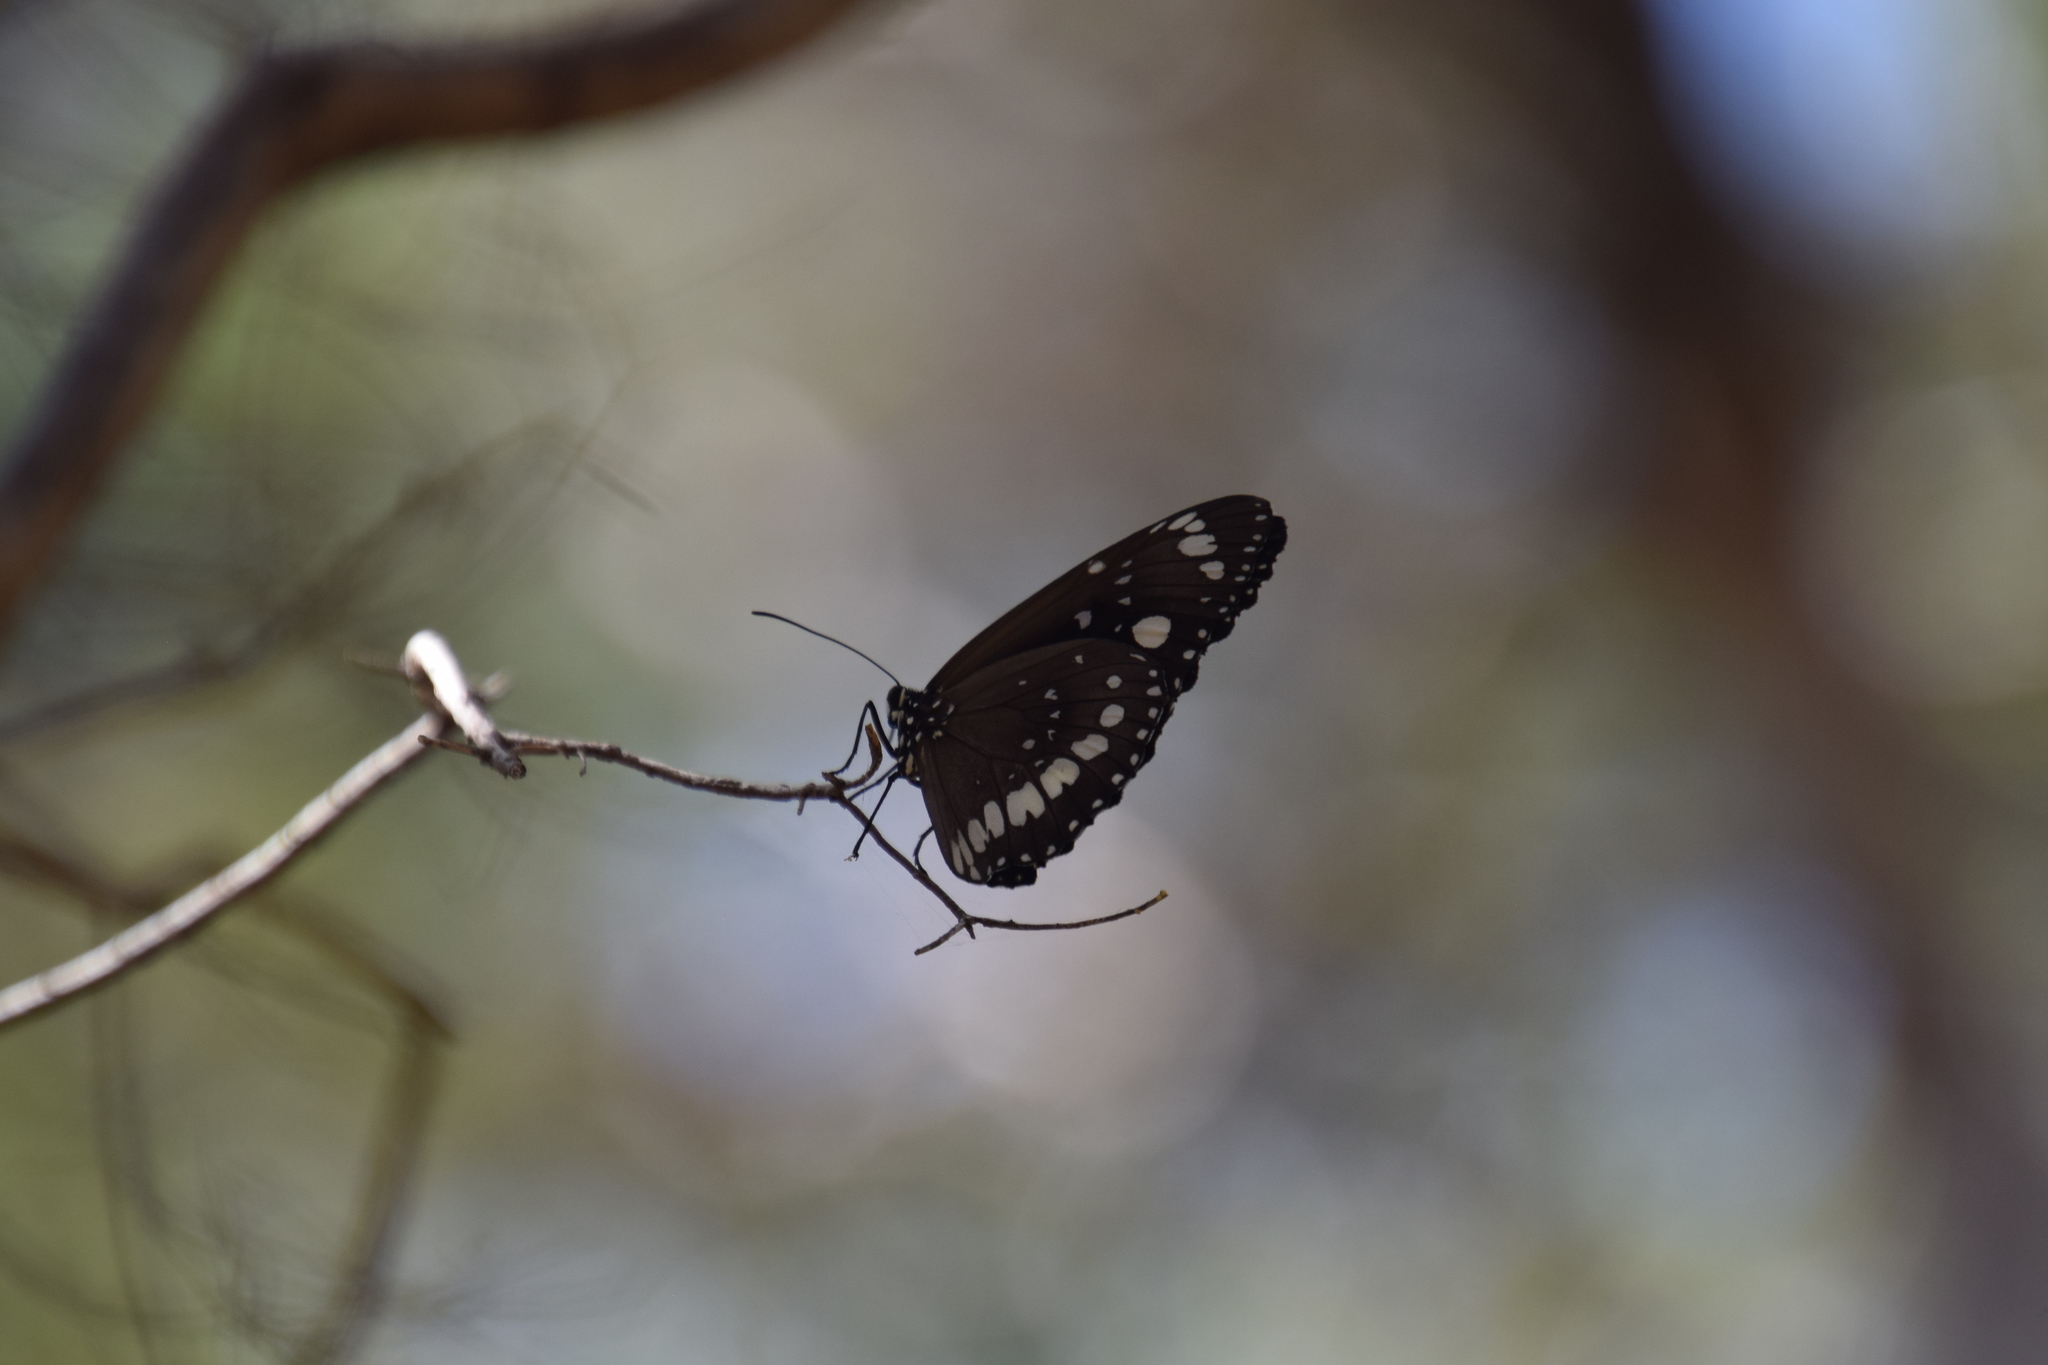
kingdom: Animalia
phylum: Arthropoda
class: Insecta
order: Lepidoptera
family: Nymphalidae
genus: Euploea
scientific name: Euploea core
